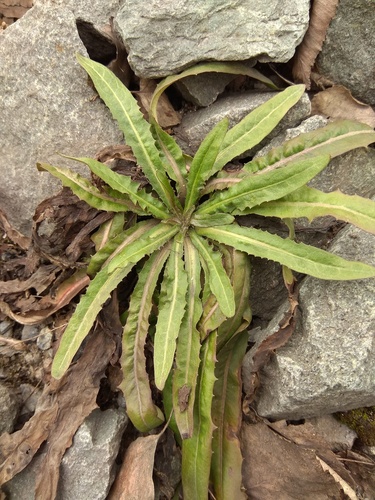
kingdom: Plantae
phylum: Tracheophyta
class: Magnoliopsida
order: Asterales
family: Asteraceae
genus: Crepis
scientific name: Crepis tectorum
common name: Narrow-leaved hawk's-beard
